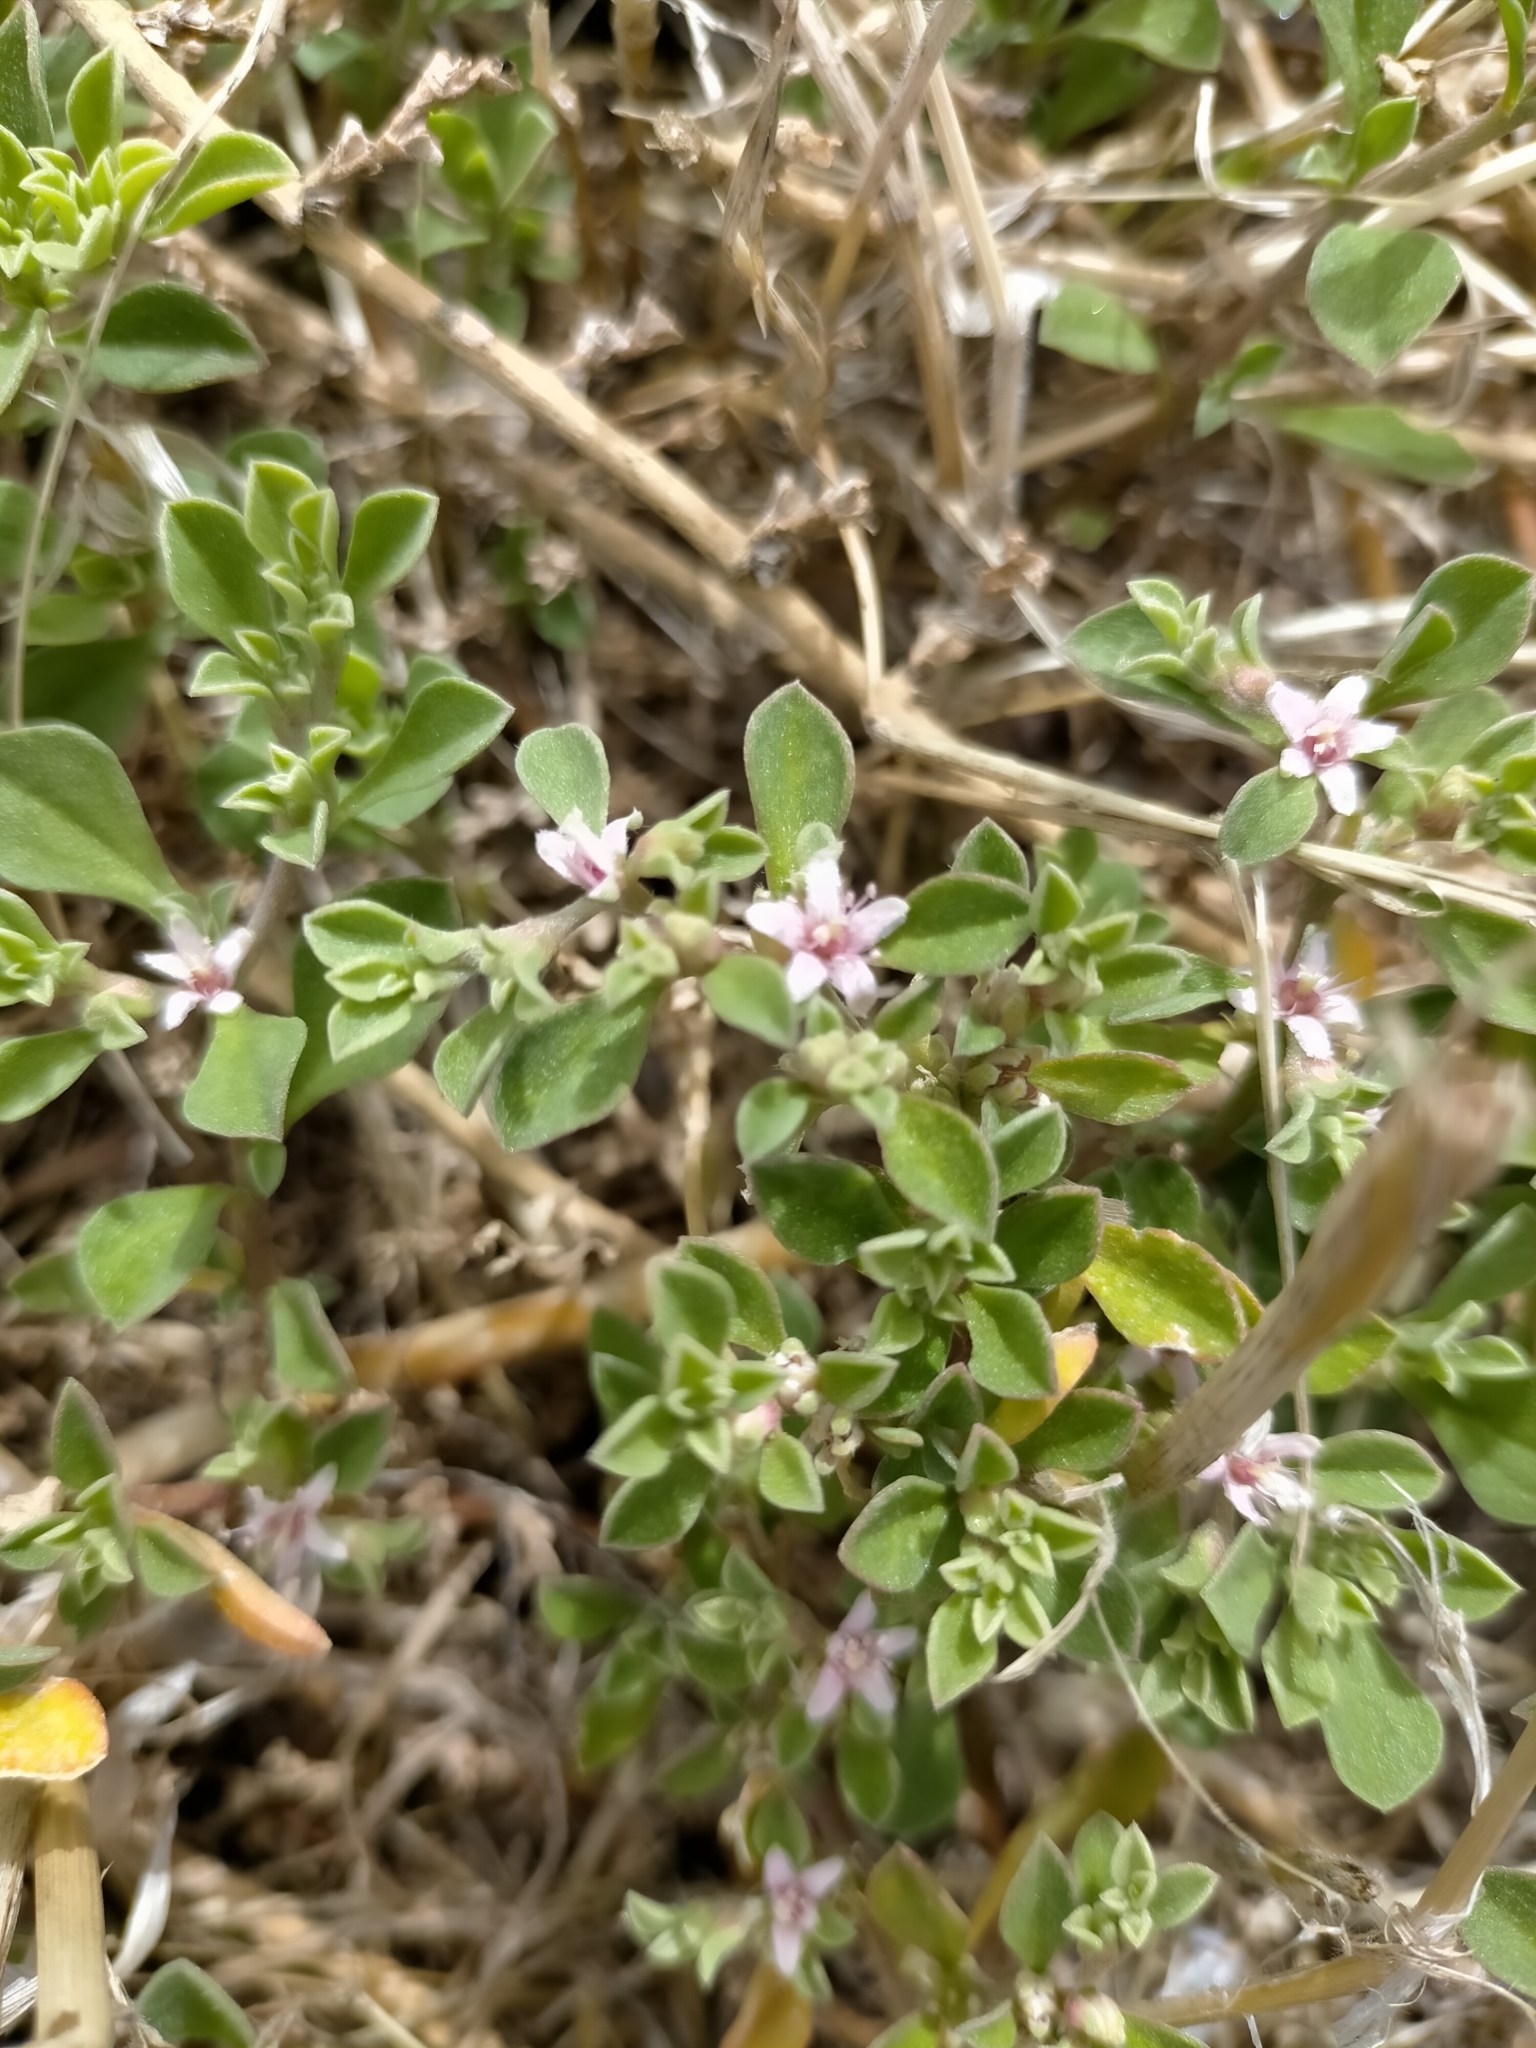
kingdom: Plantae
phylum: Tracheophyta
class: Magnoliopsida
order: Caryophyllales
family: Aizoaceae
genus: Aizoon
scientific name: Aizoon pubescens
